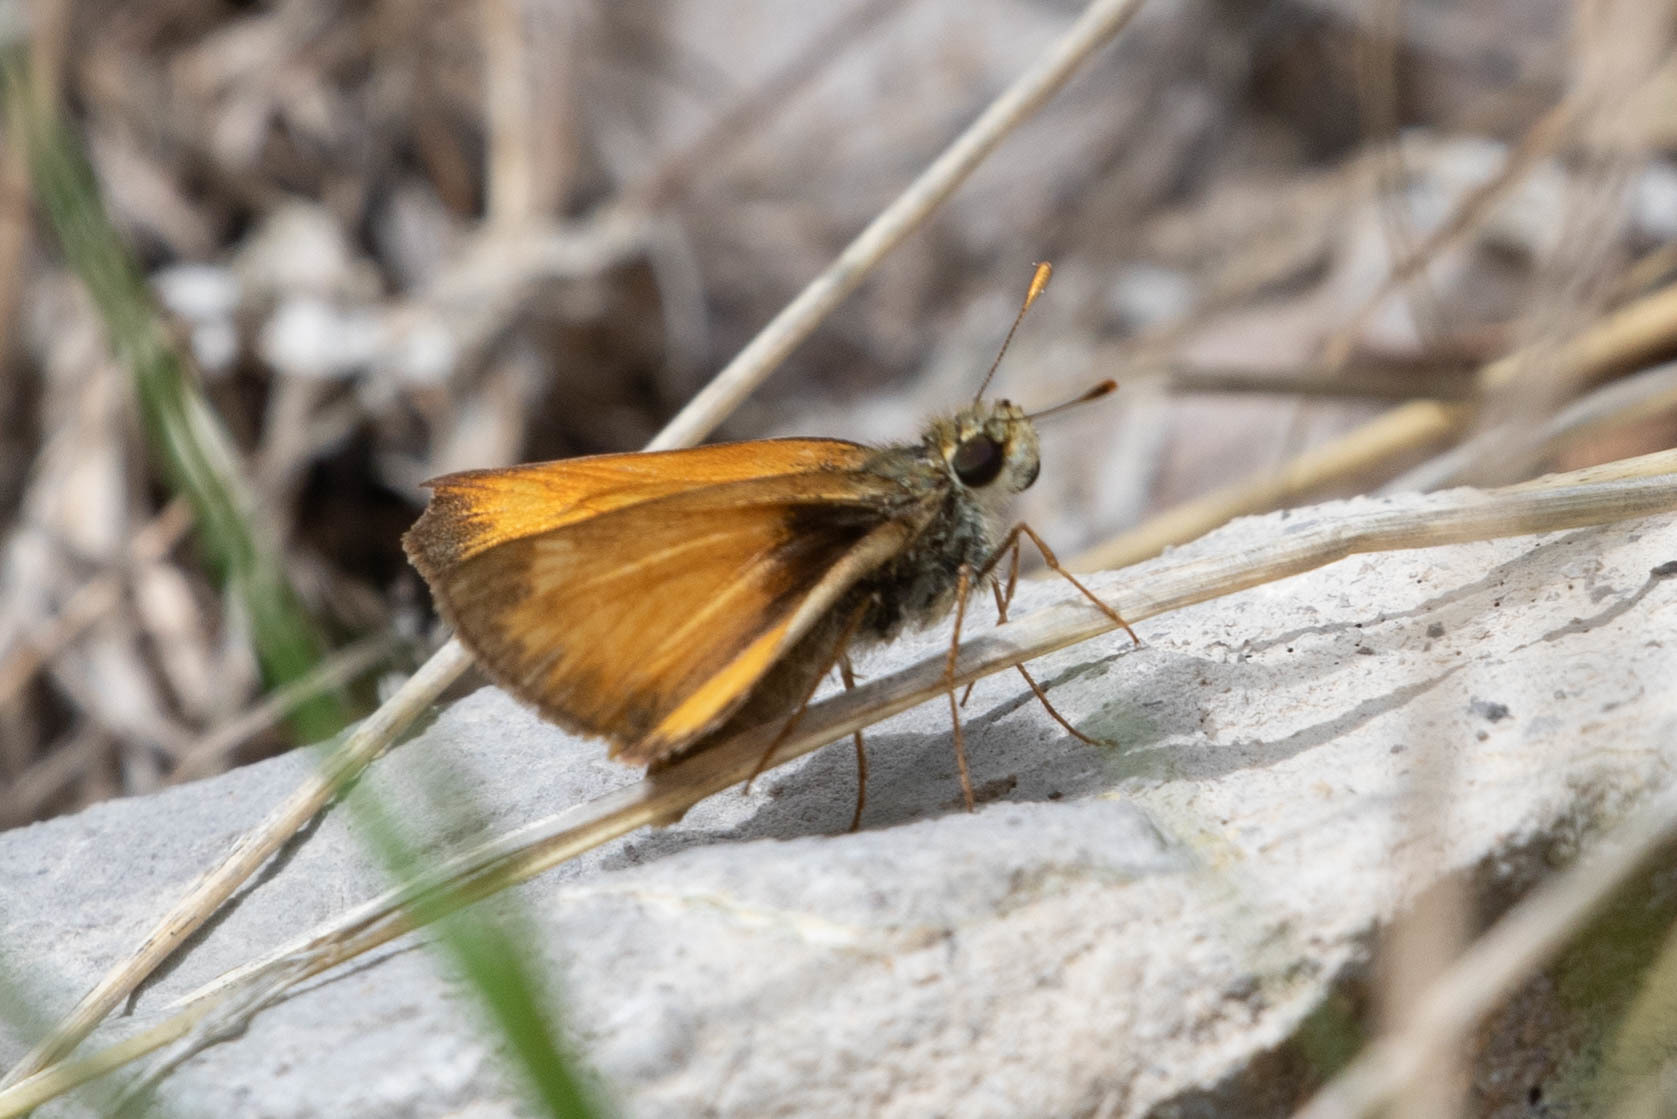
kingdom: Animalia
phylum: Arthropoda
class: Insecta
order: Lepidoptera
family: Hesperiidae
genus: Lon
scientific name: Lon taxiles
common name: Taxiles skipper
